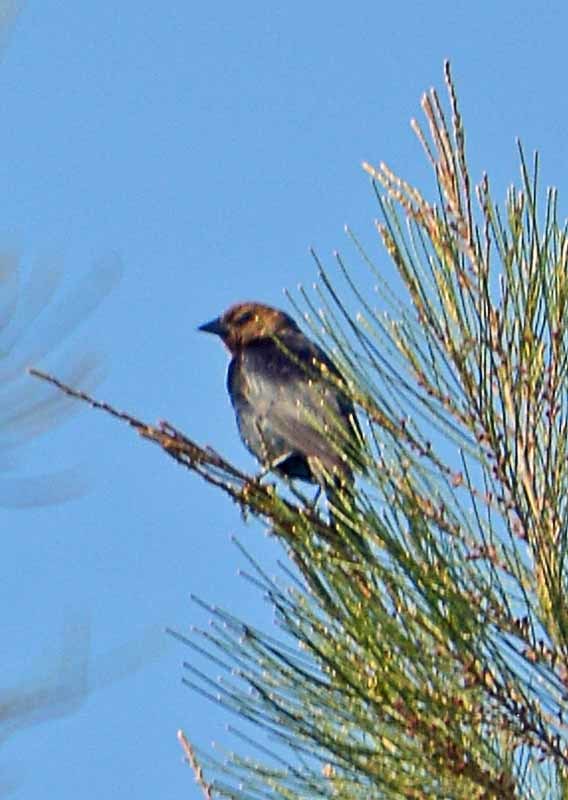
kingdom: Animalia
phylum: Chordata
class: Aves
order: Passeriformes
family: Icteridae
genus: Molothrus
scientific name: Molothrus ater
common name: Brown-headed cowbird
